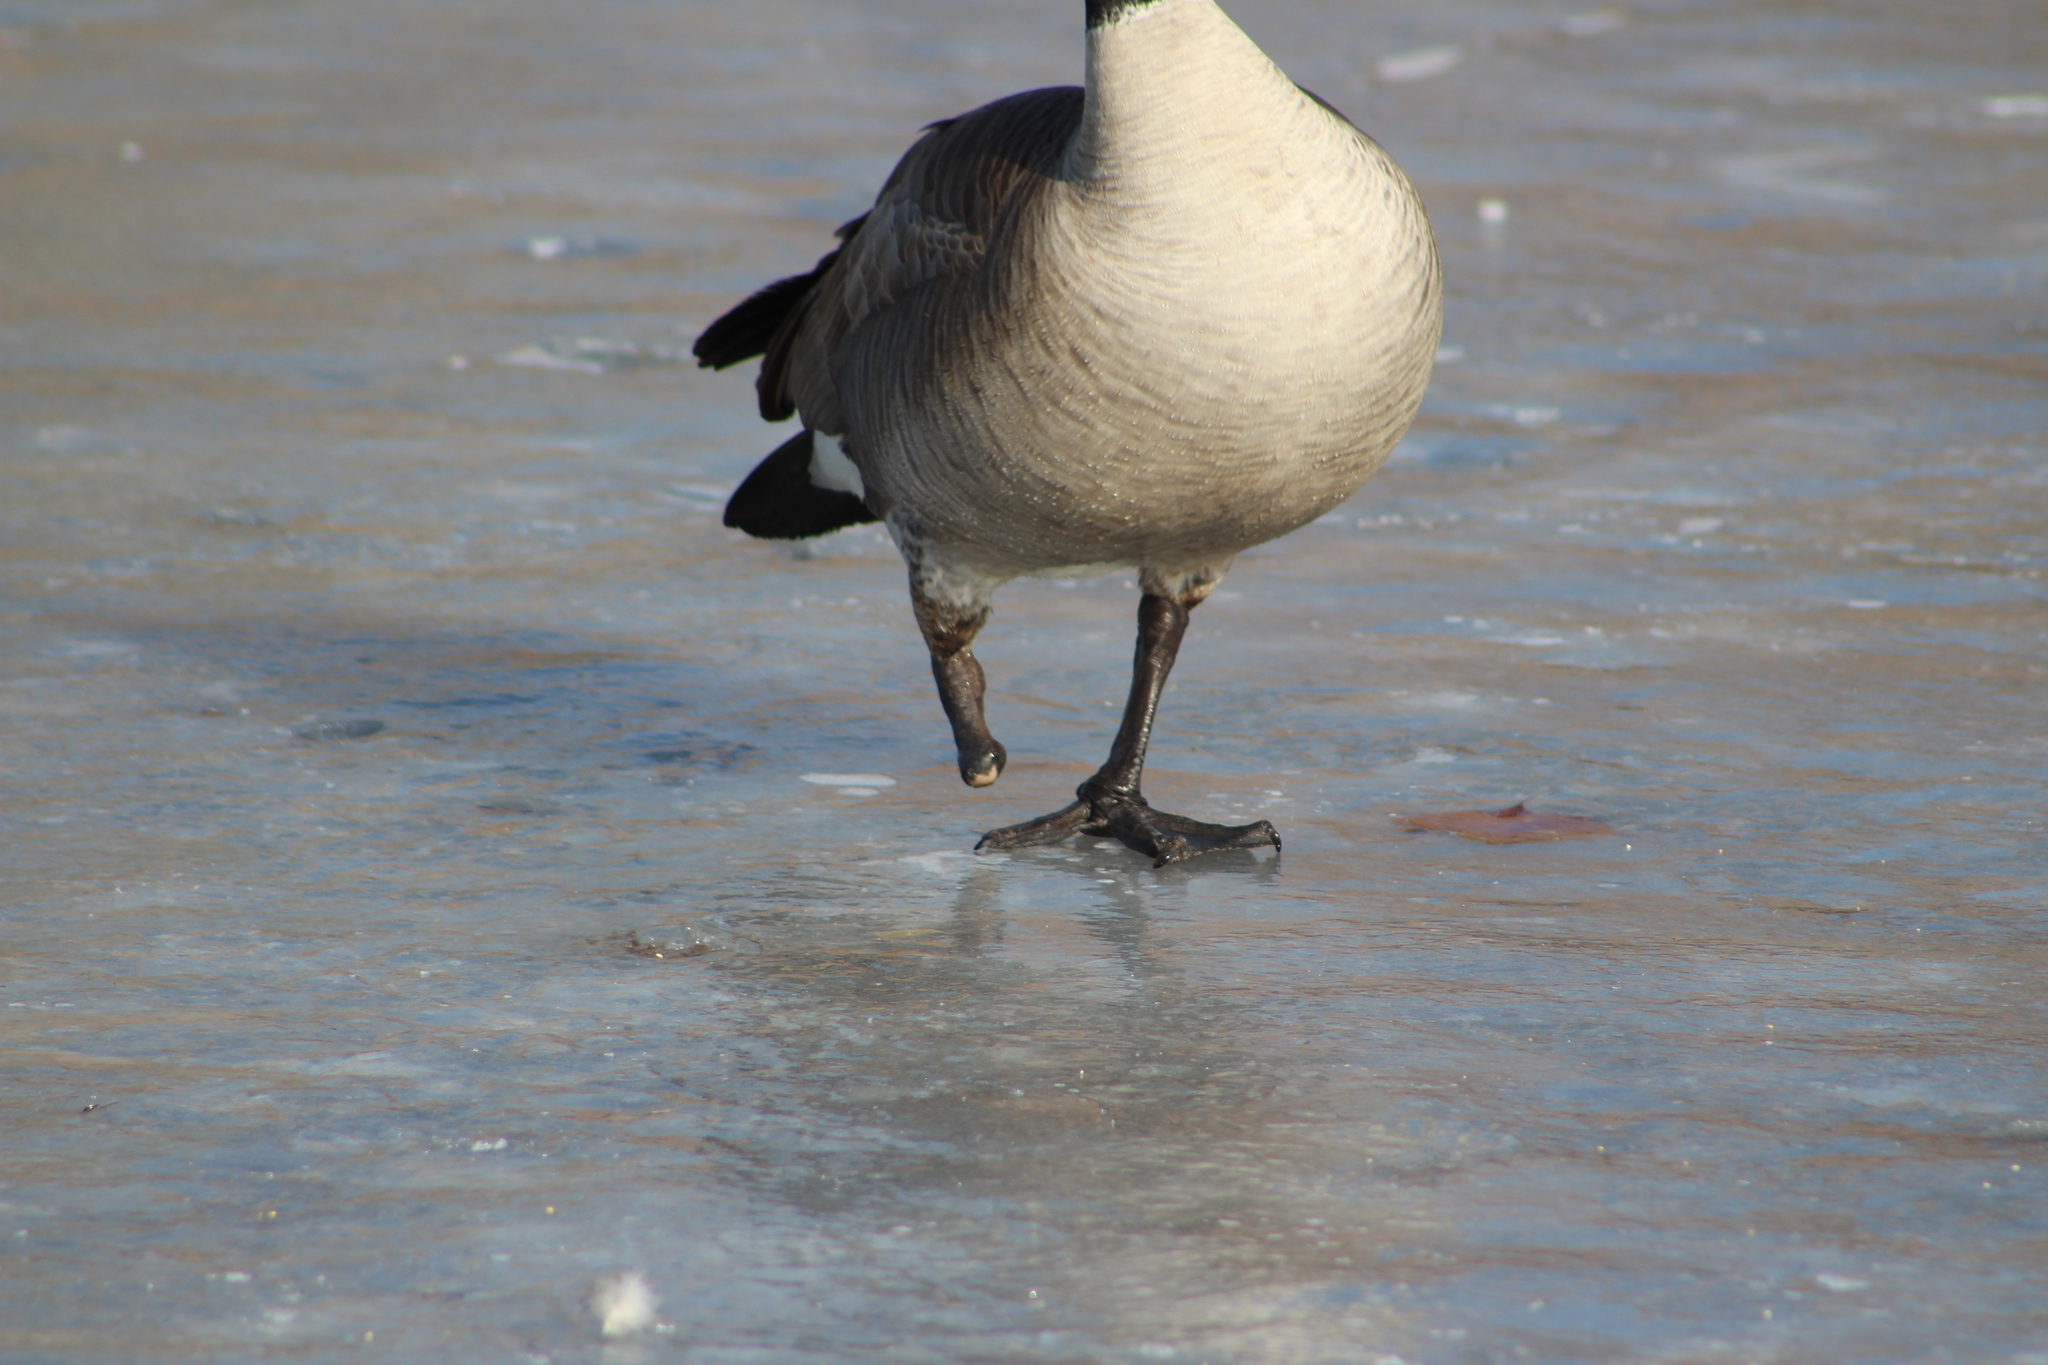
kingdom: Animalia
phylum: Chordata
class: Aves
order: Anseriformes
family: Anatidae
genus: Branta
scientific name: Branta canadensis
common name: Canada goose
